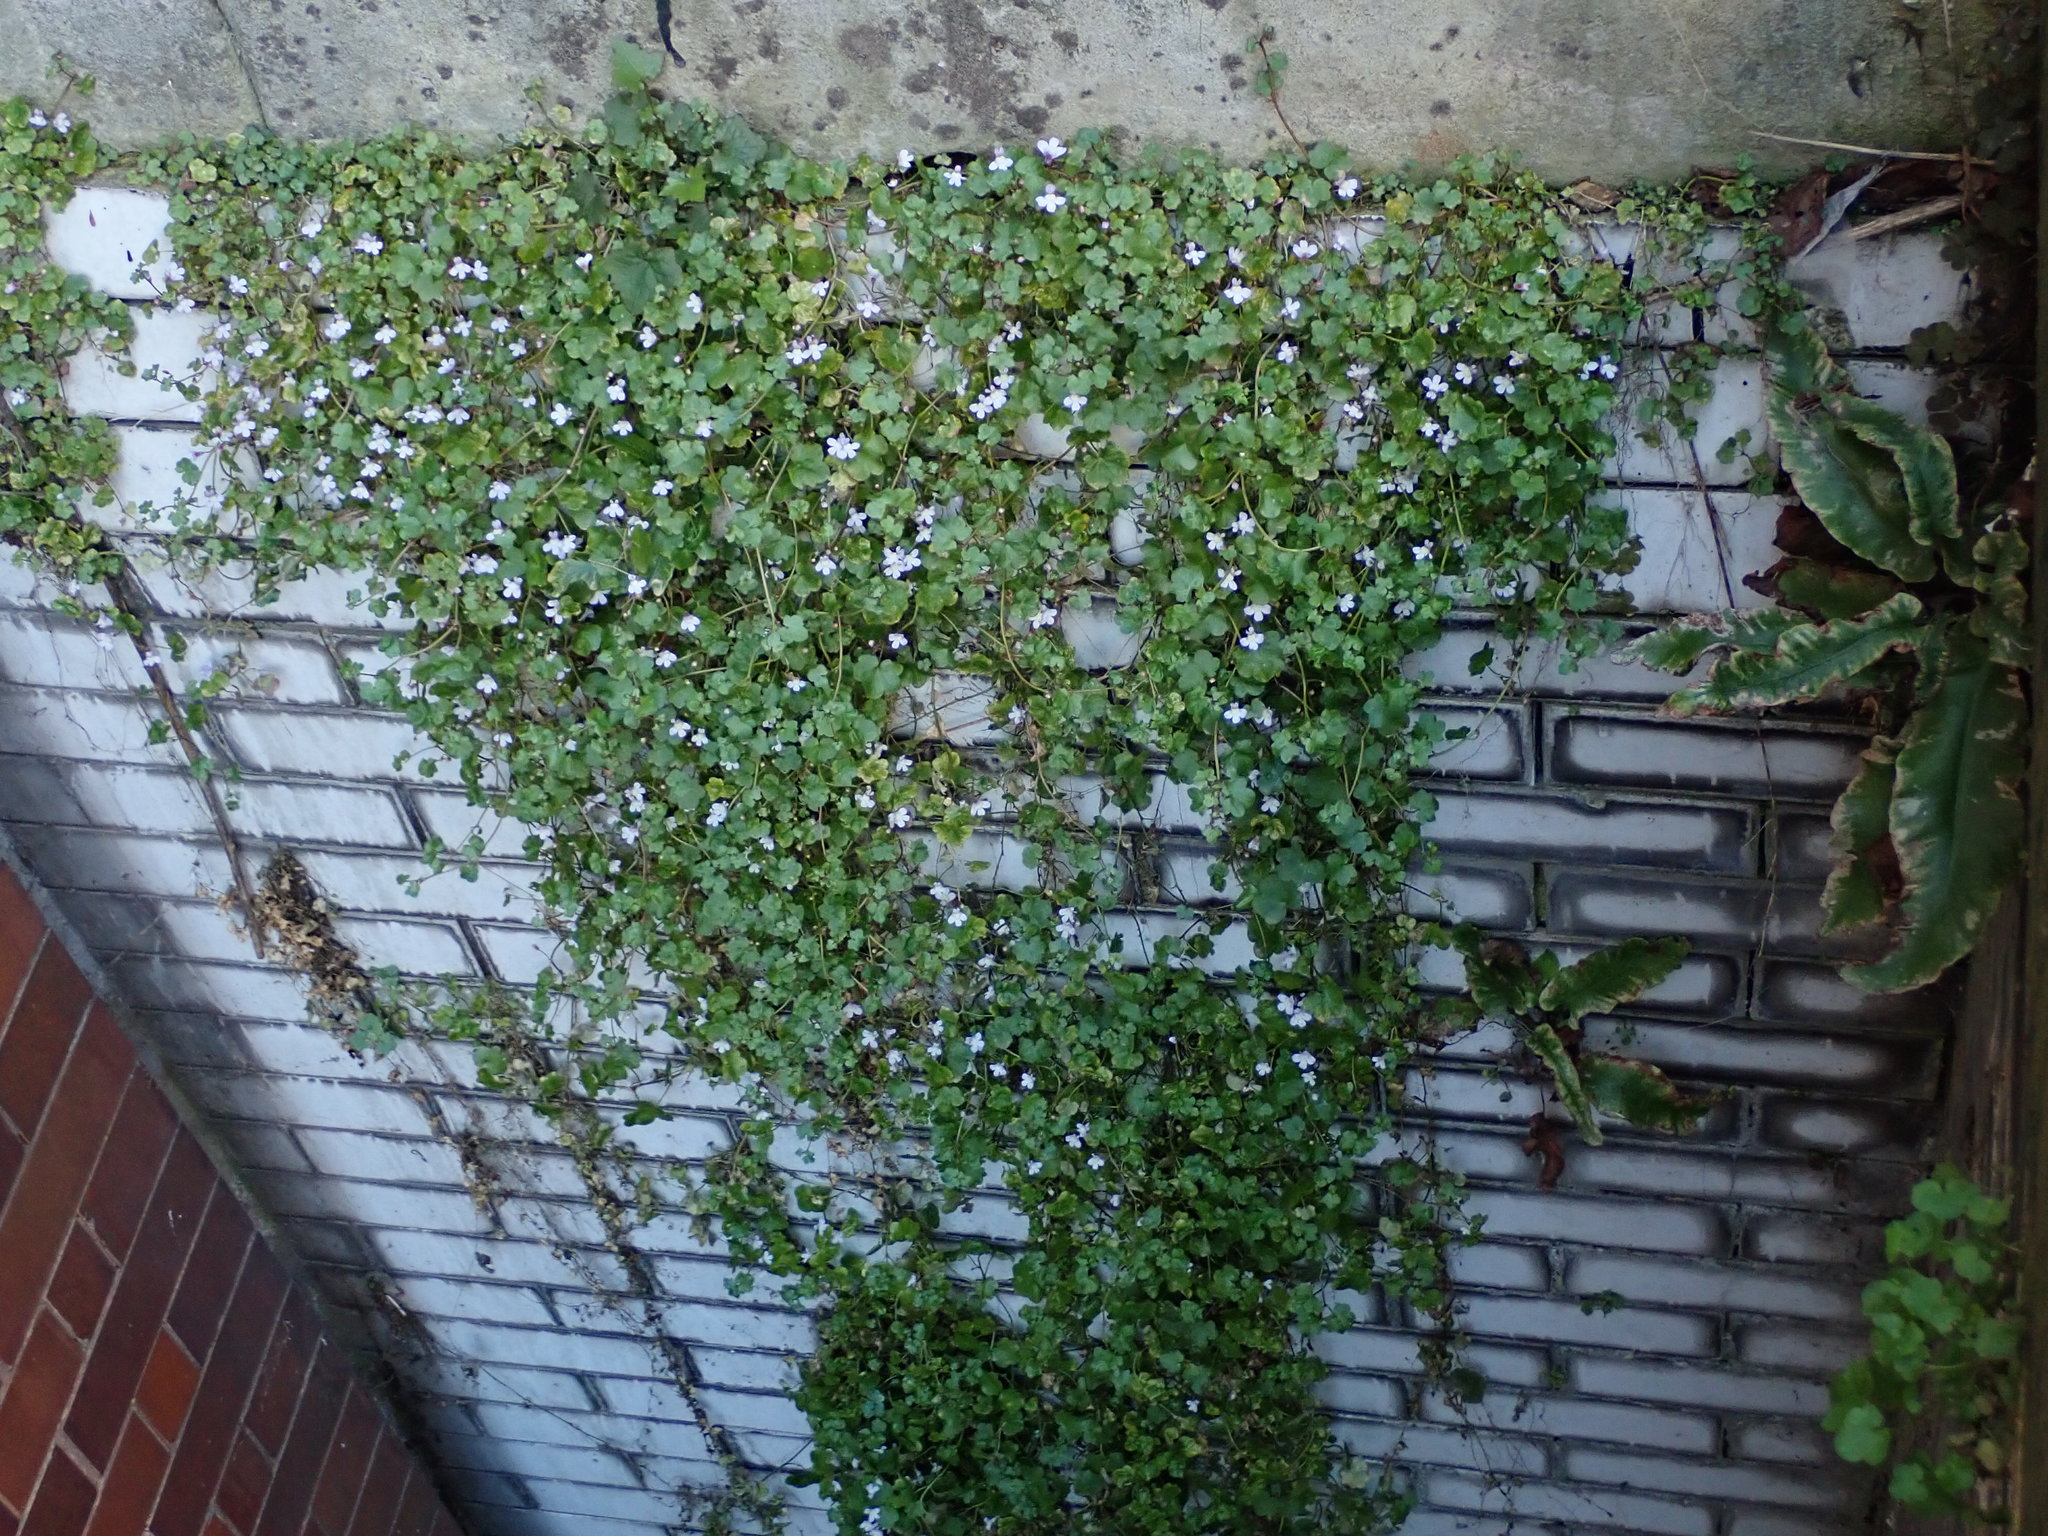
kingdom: Plantae
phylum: Tracheophyta
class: Magnoliopsida
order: Lamiales
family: Plantaginaceae
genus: Cymbalaria
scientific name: Cymbalaria muralis
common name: Ivy-leaved toadflax
